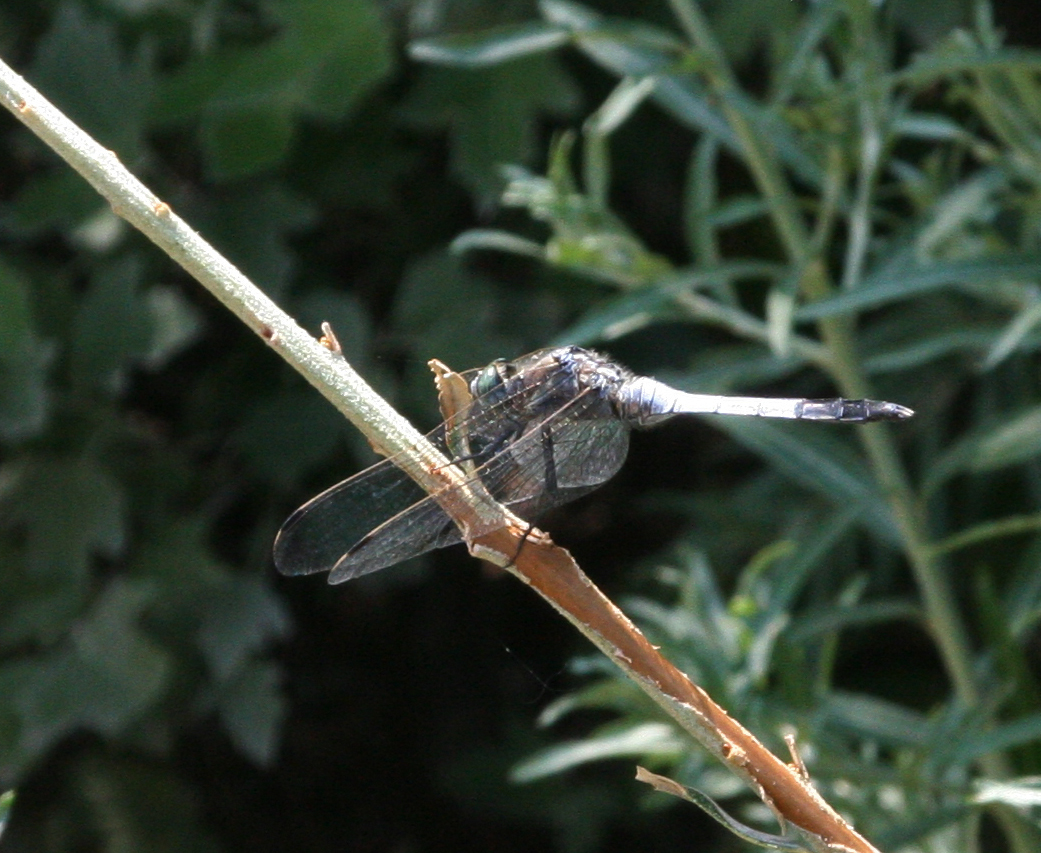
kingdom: Animalia
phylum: Arthropoda
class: Insecta
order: Odonata
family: Libellulidae
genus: Orthetrum
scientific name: Orthetrum albistylum
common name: White-tailed skimmer
